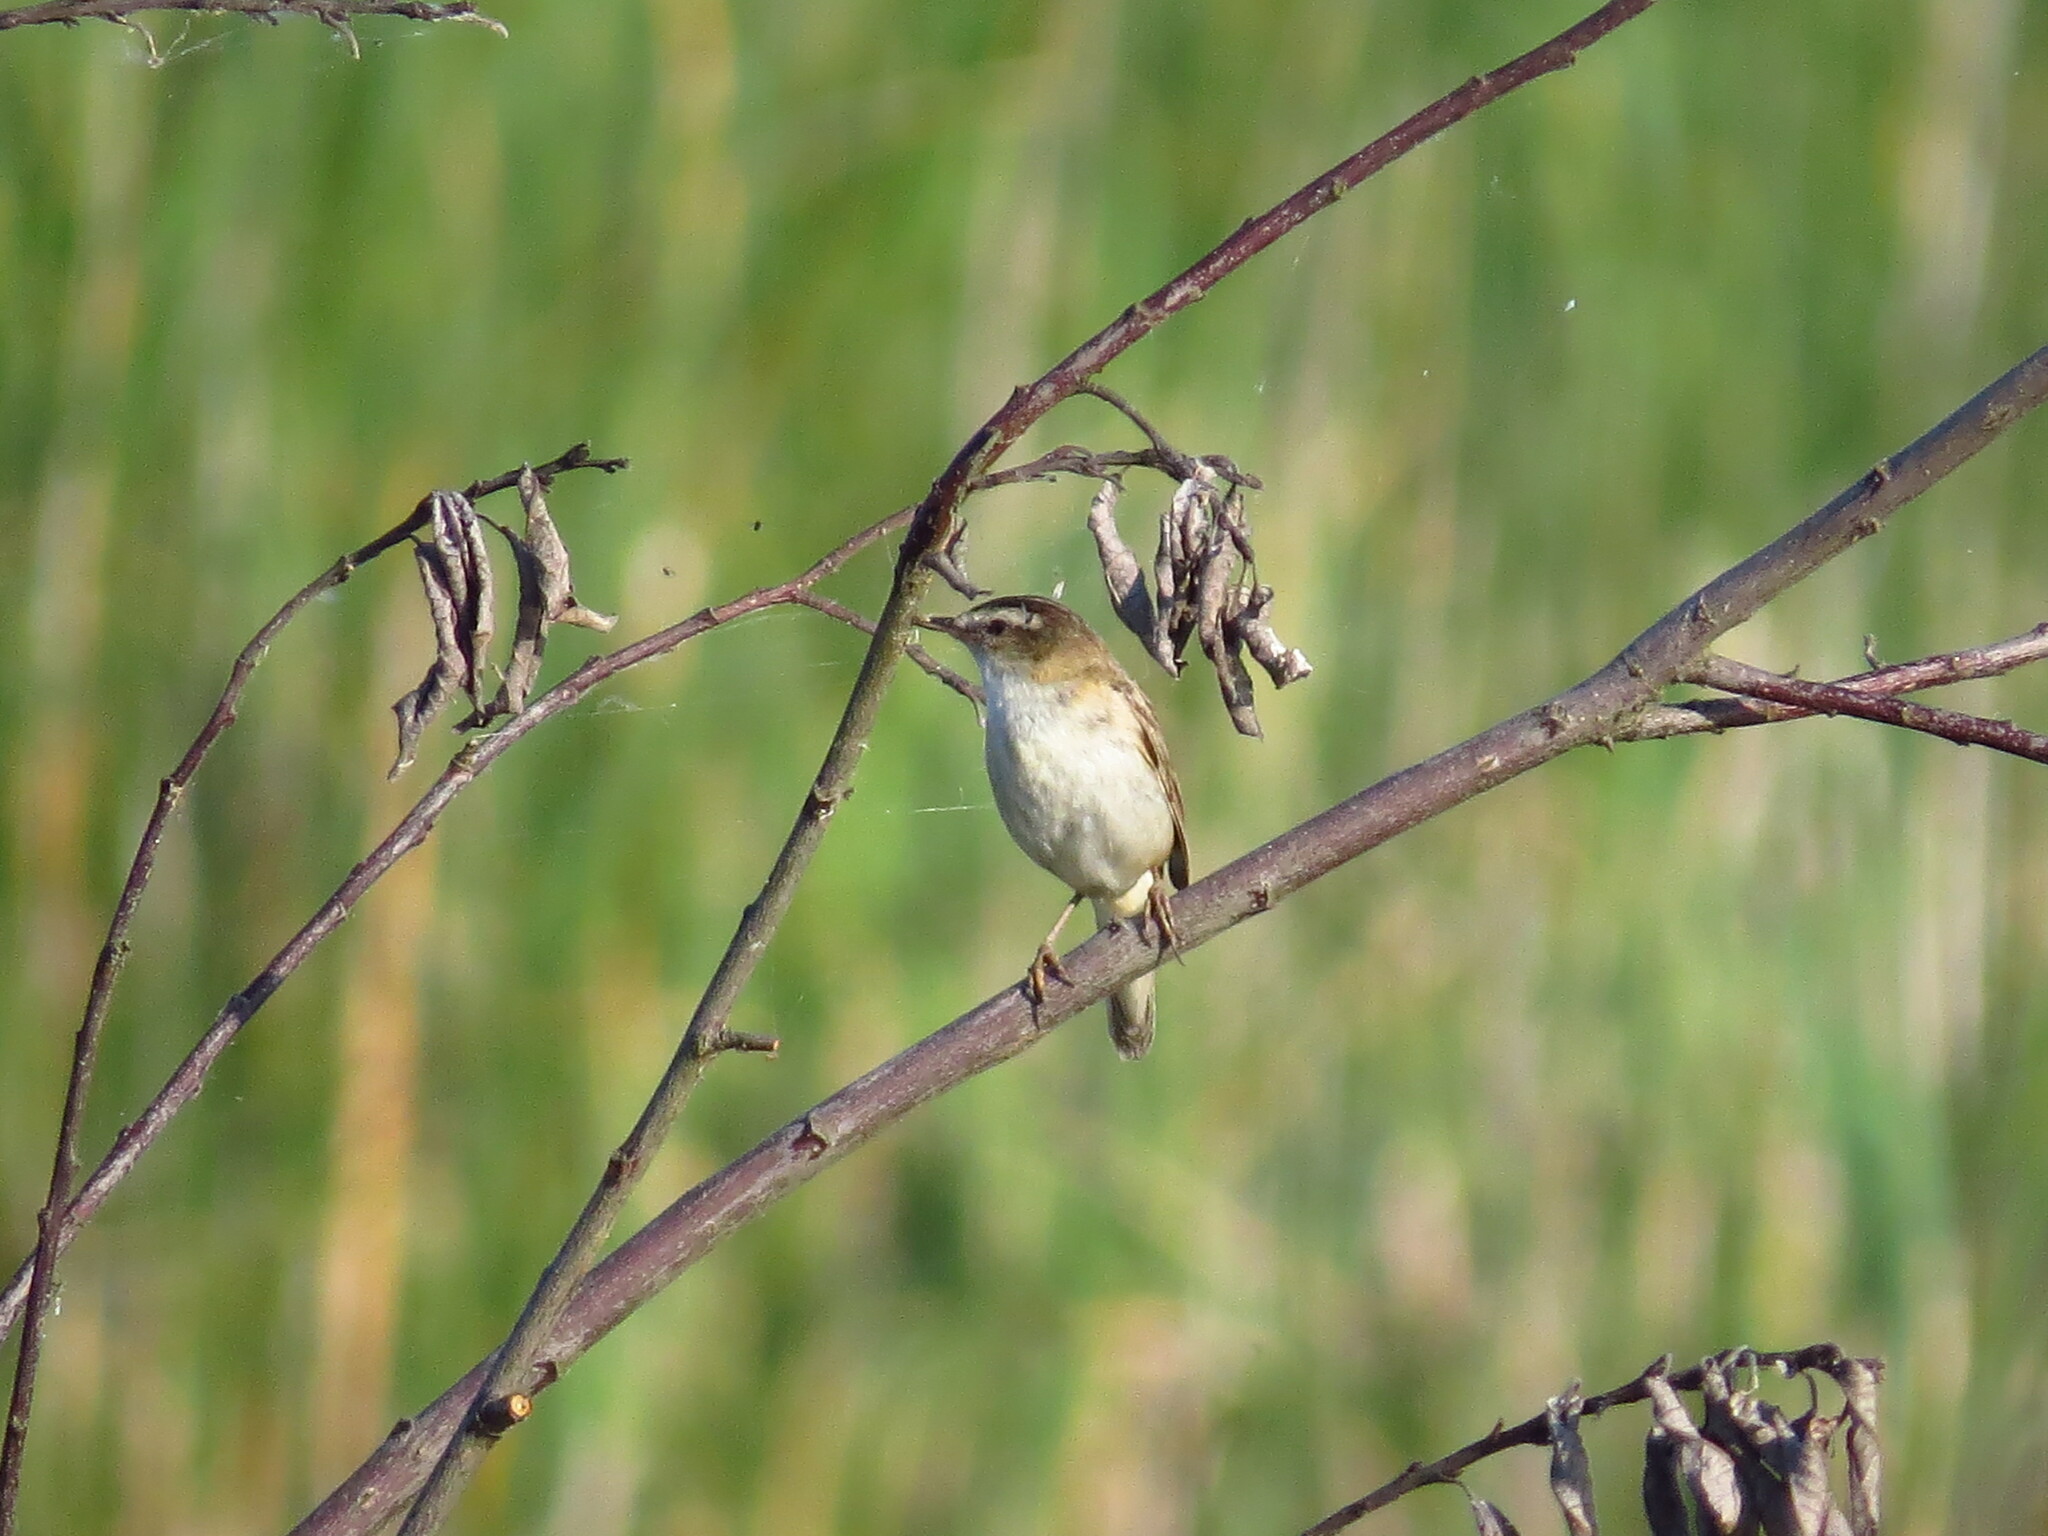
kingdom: Animalia
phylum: Chordata
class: Aves
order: Passeriformes
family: Acrocephalidae
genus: Acrocephalus
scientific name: Acrocephalus schoenobaenus
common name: Sedge warbler
